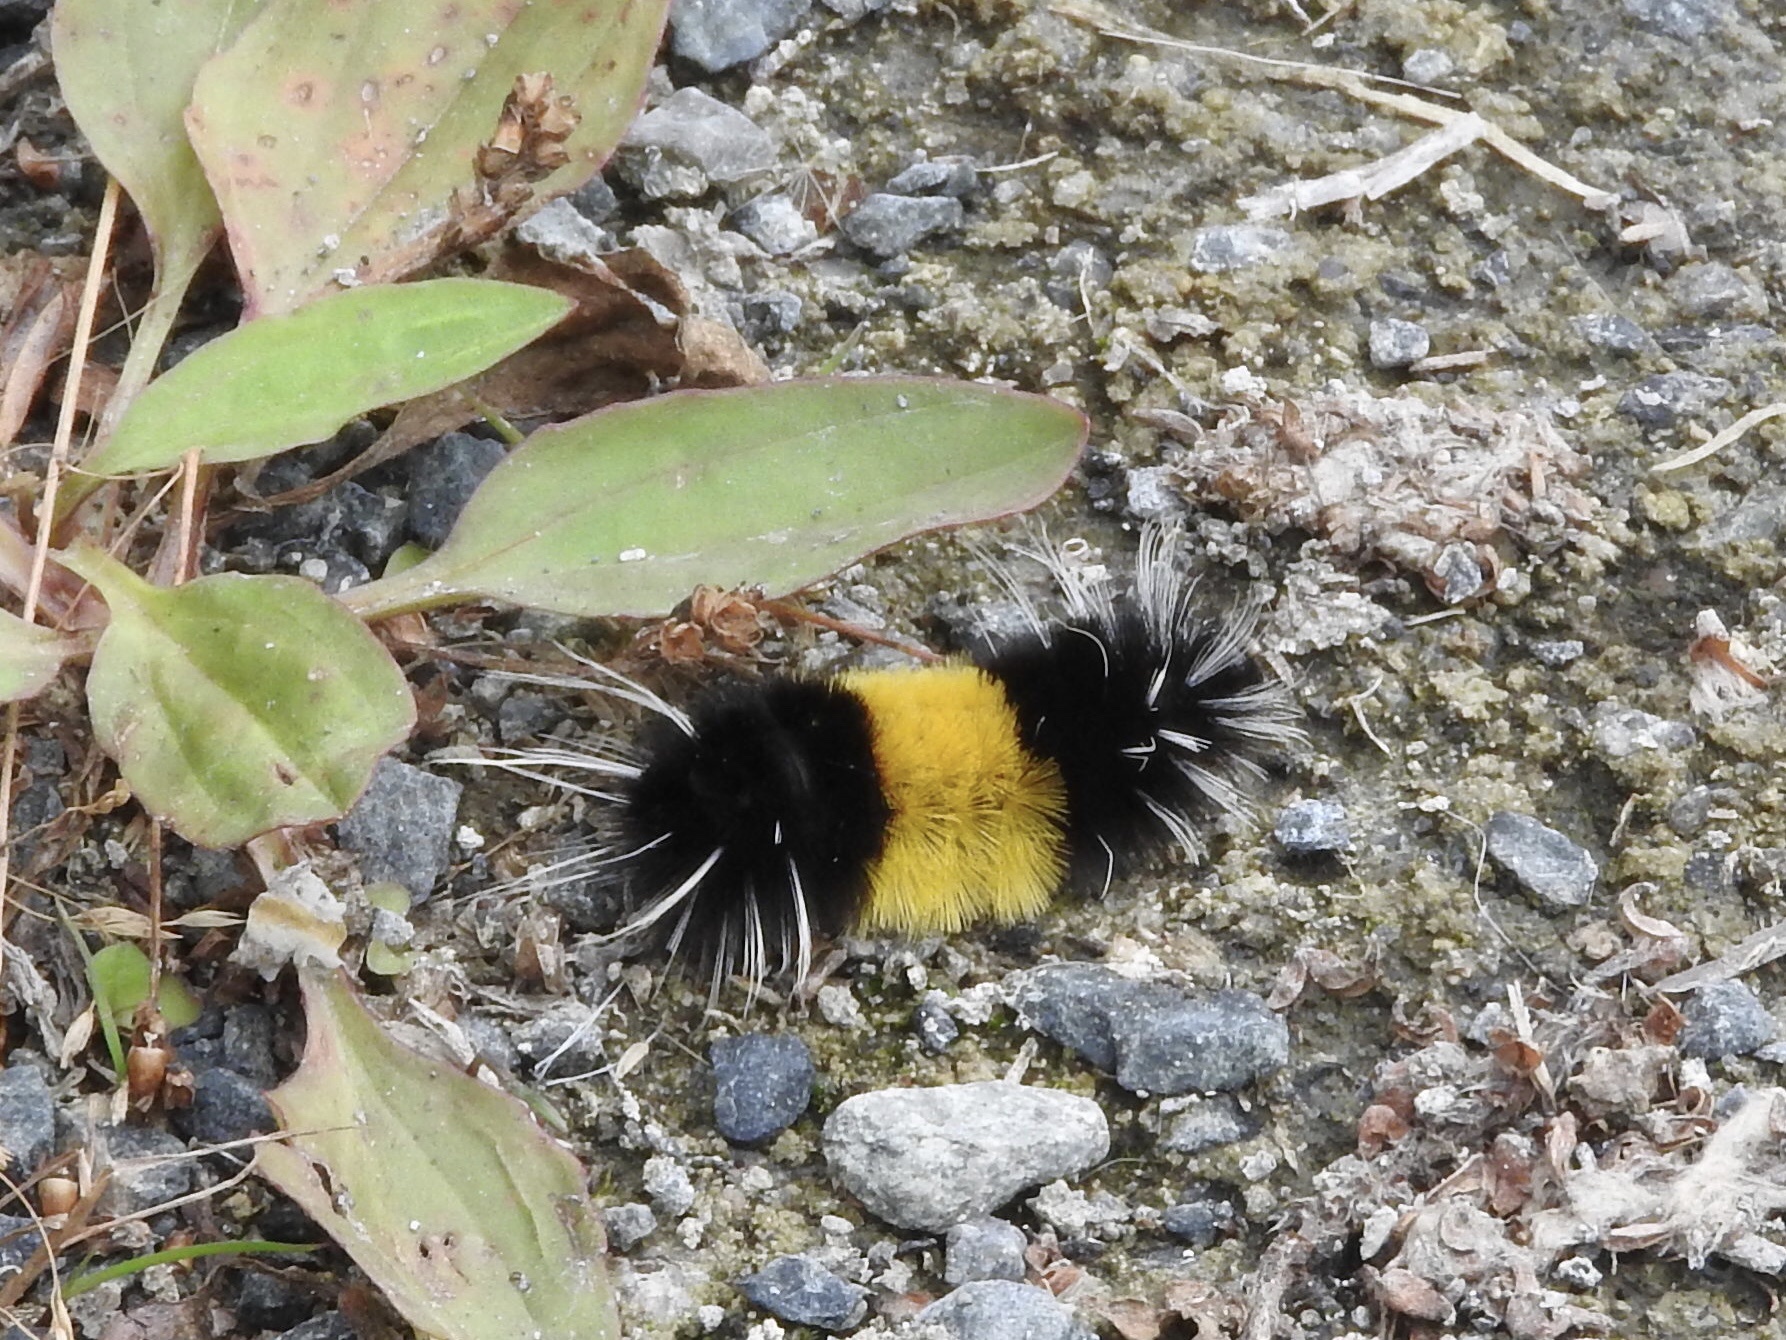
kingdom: Animalia
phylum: Arthropoda
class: Insecta
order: Lepidoptera
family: Erebidae
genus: Lophocampa
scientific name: Lophocampa maculata
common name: Spotted tussock moth
